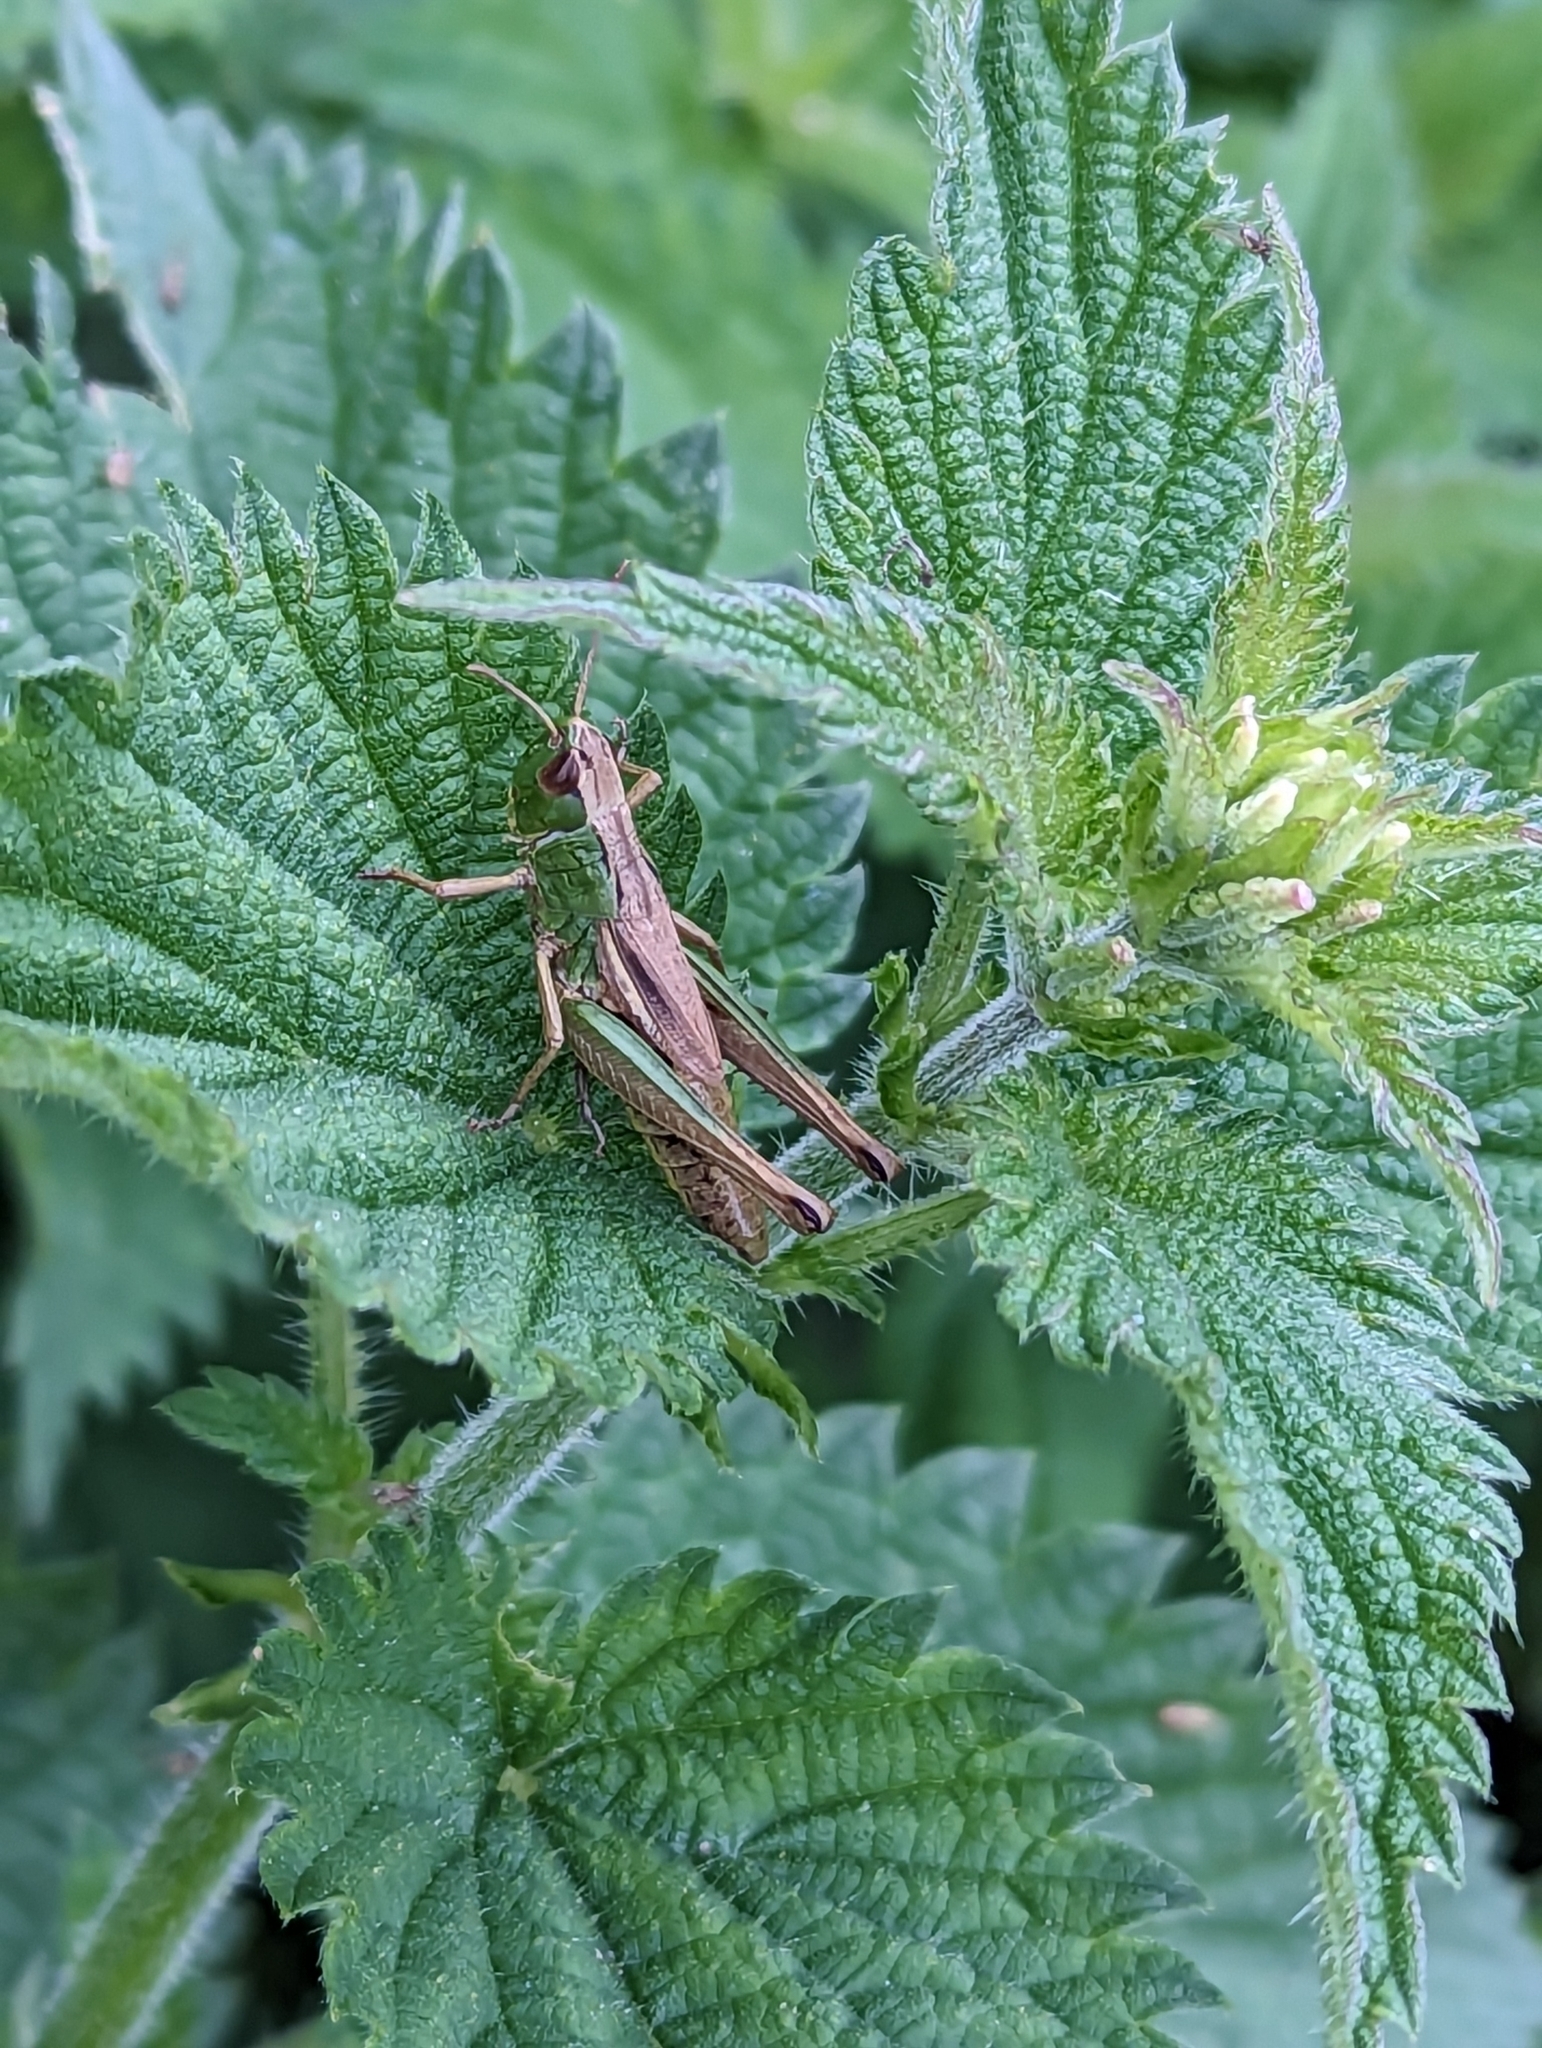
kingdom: Animalia
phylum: Arthropoda
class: Insecta
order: Orthoptera
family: Acrididae
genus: Pseudochorthippus
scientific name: Pseudochorthippus parallelus
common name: Meadow grasshopper
